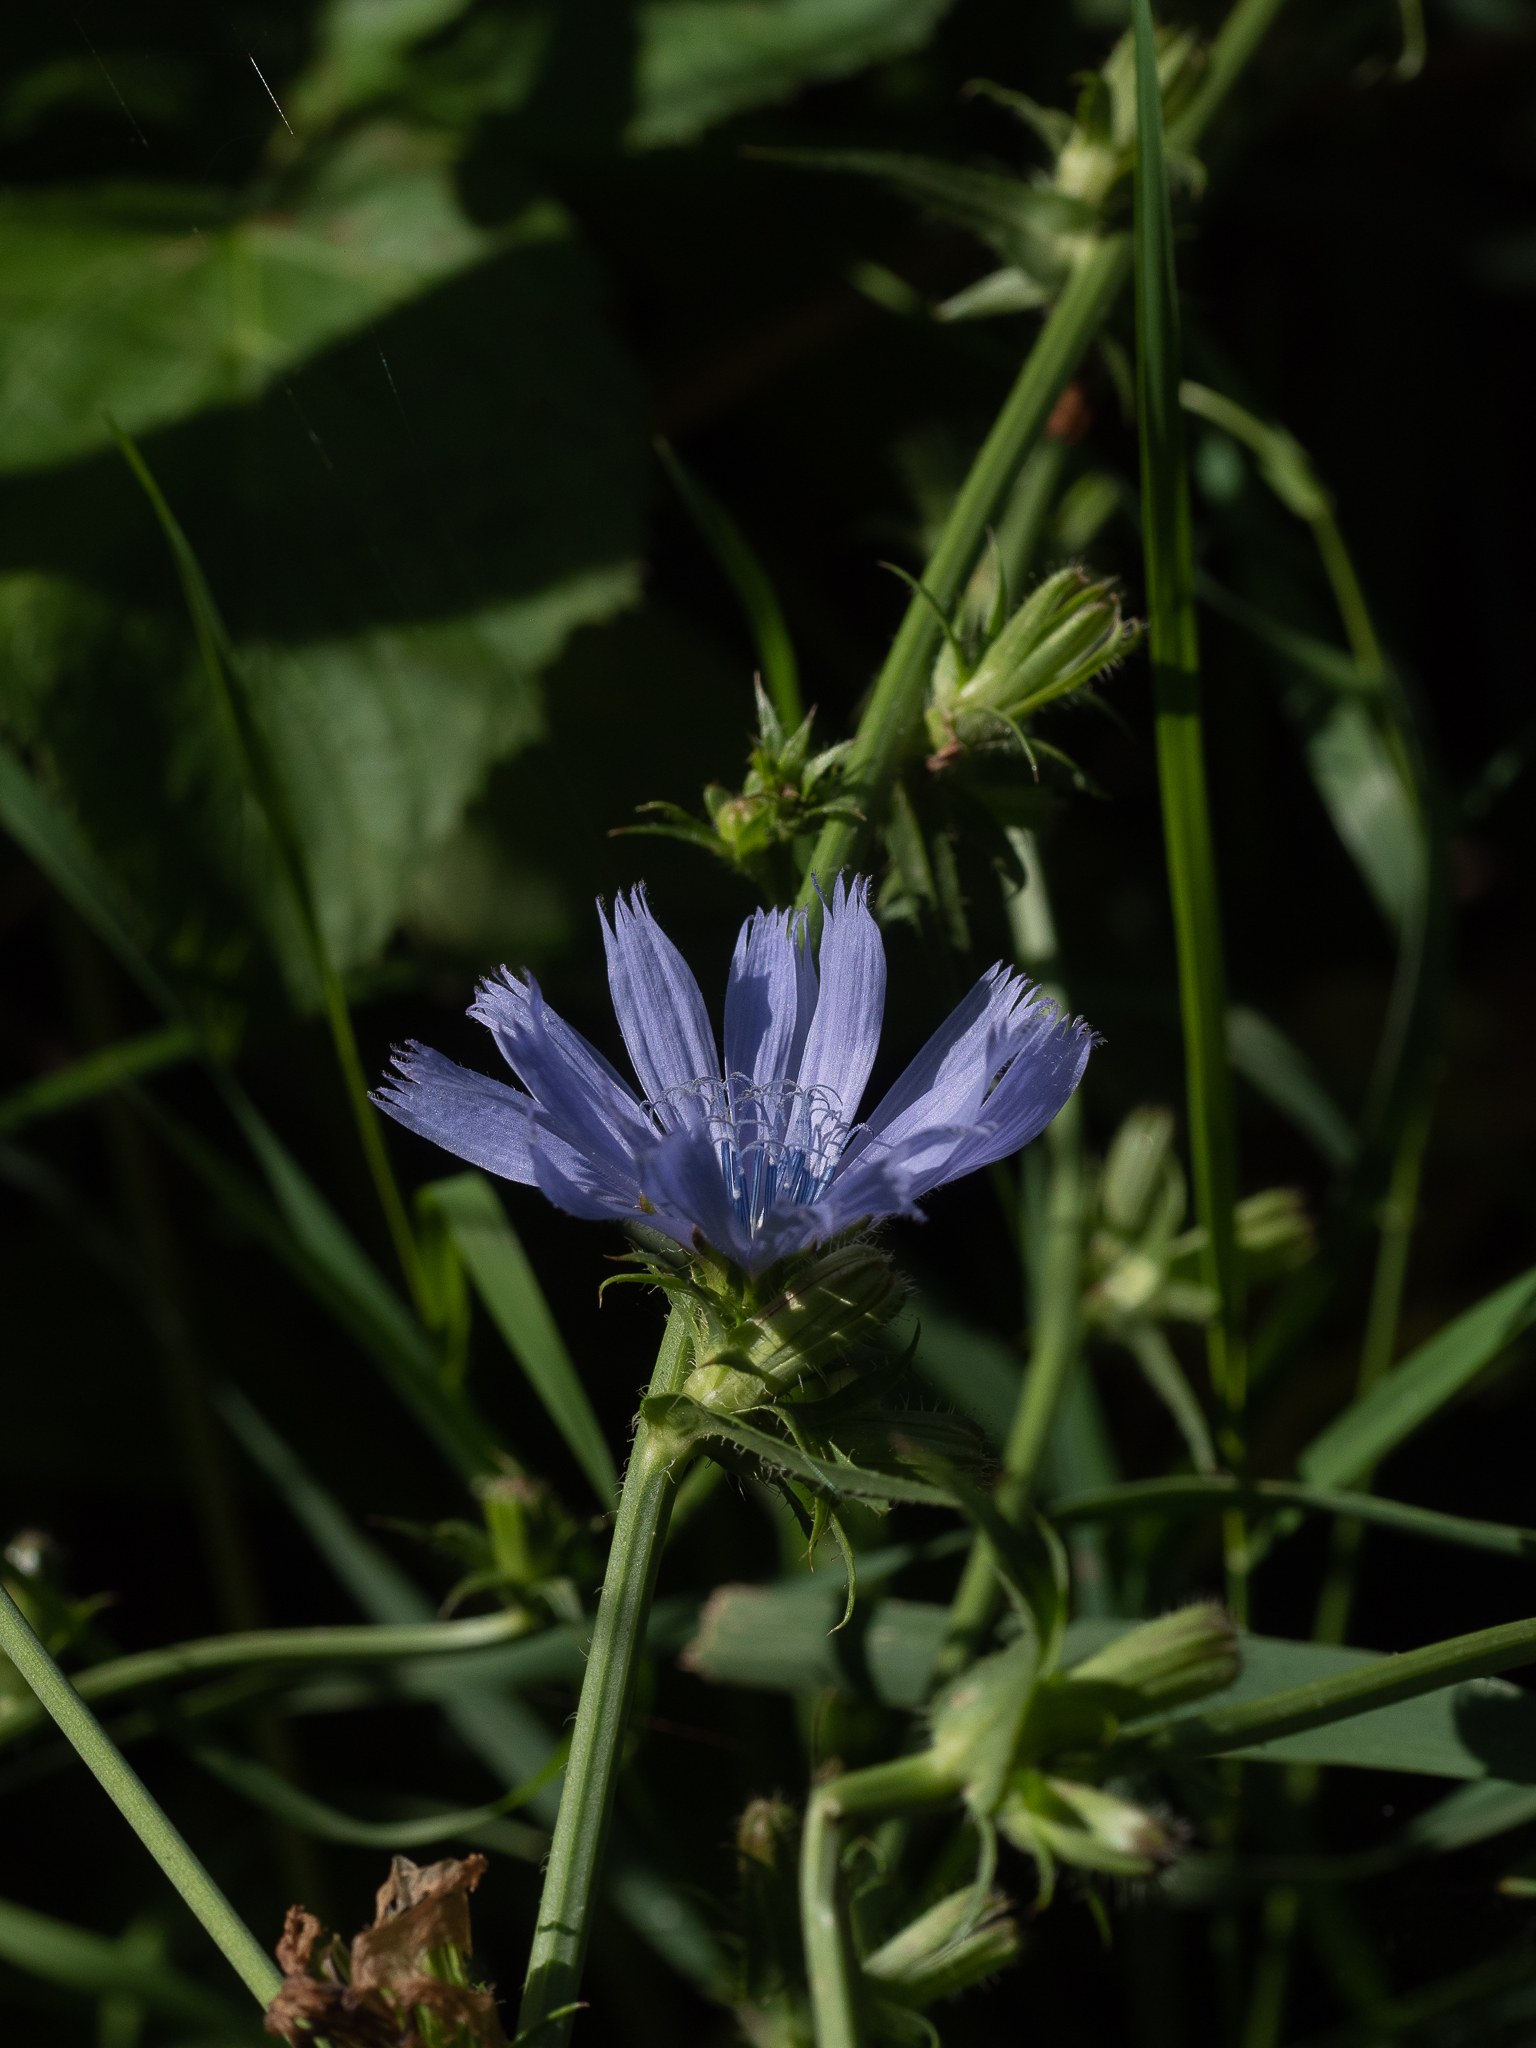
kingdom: Plantae
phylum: Tracheophyta
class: Magnoliopsida
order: Asterales
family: Asteraceae
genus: Cichorium
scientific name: Cichorium intybus
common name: Chicory
